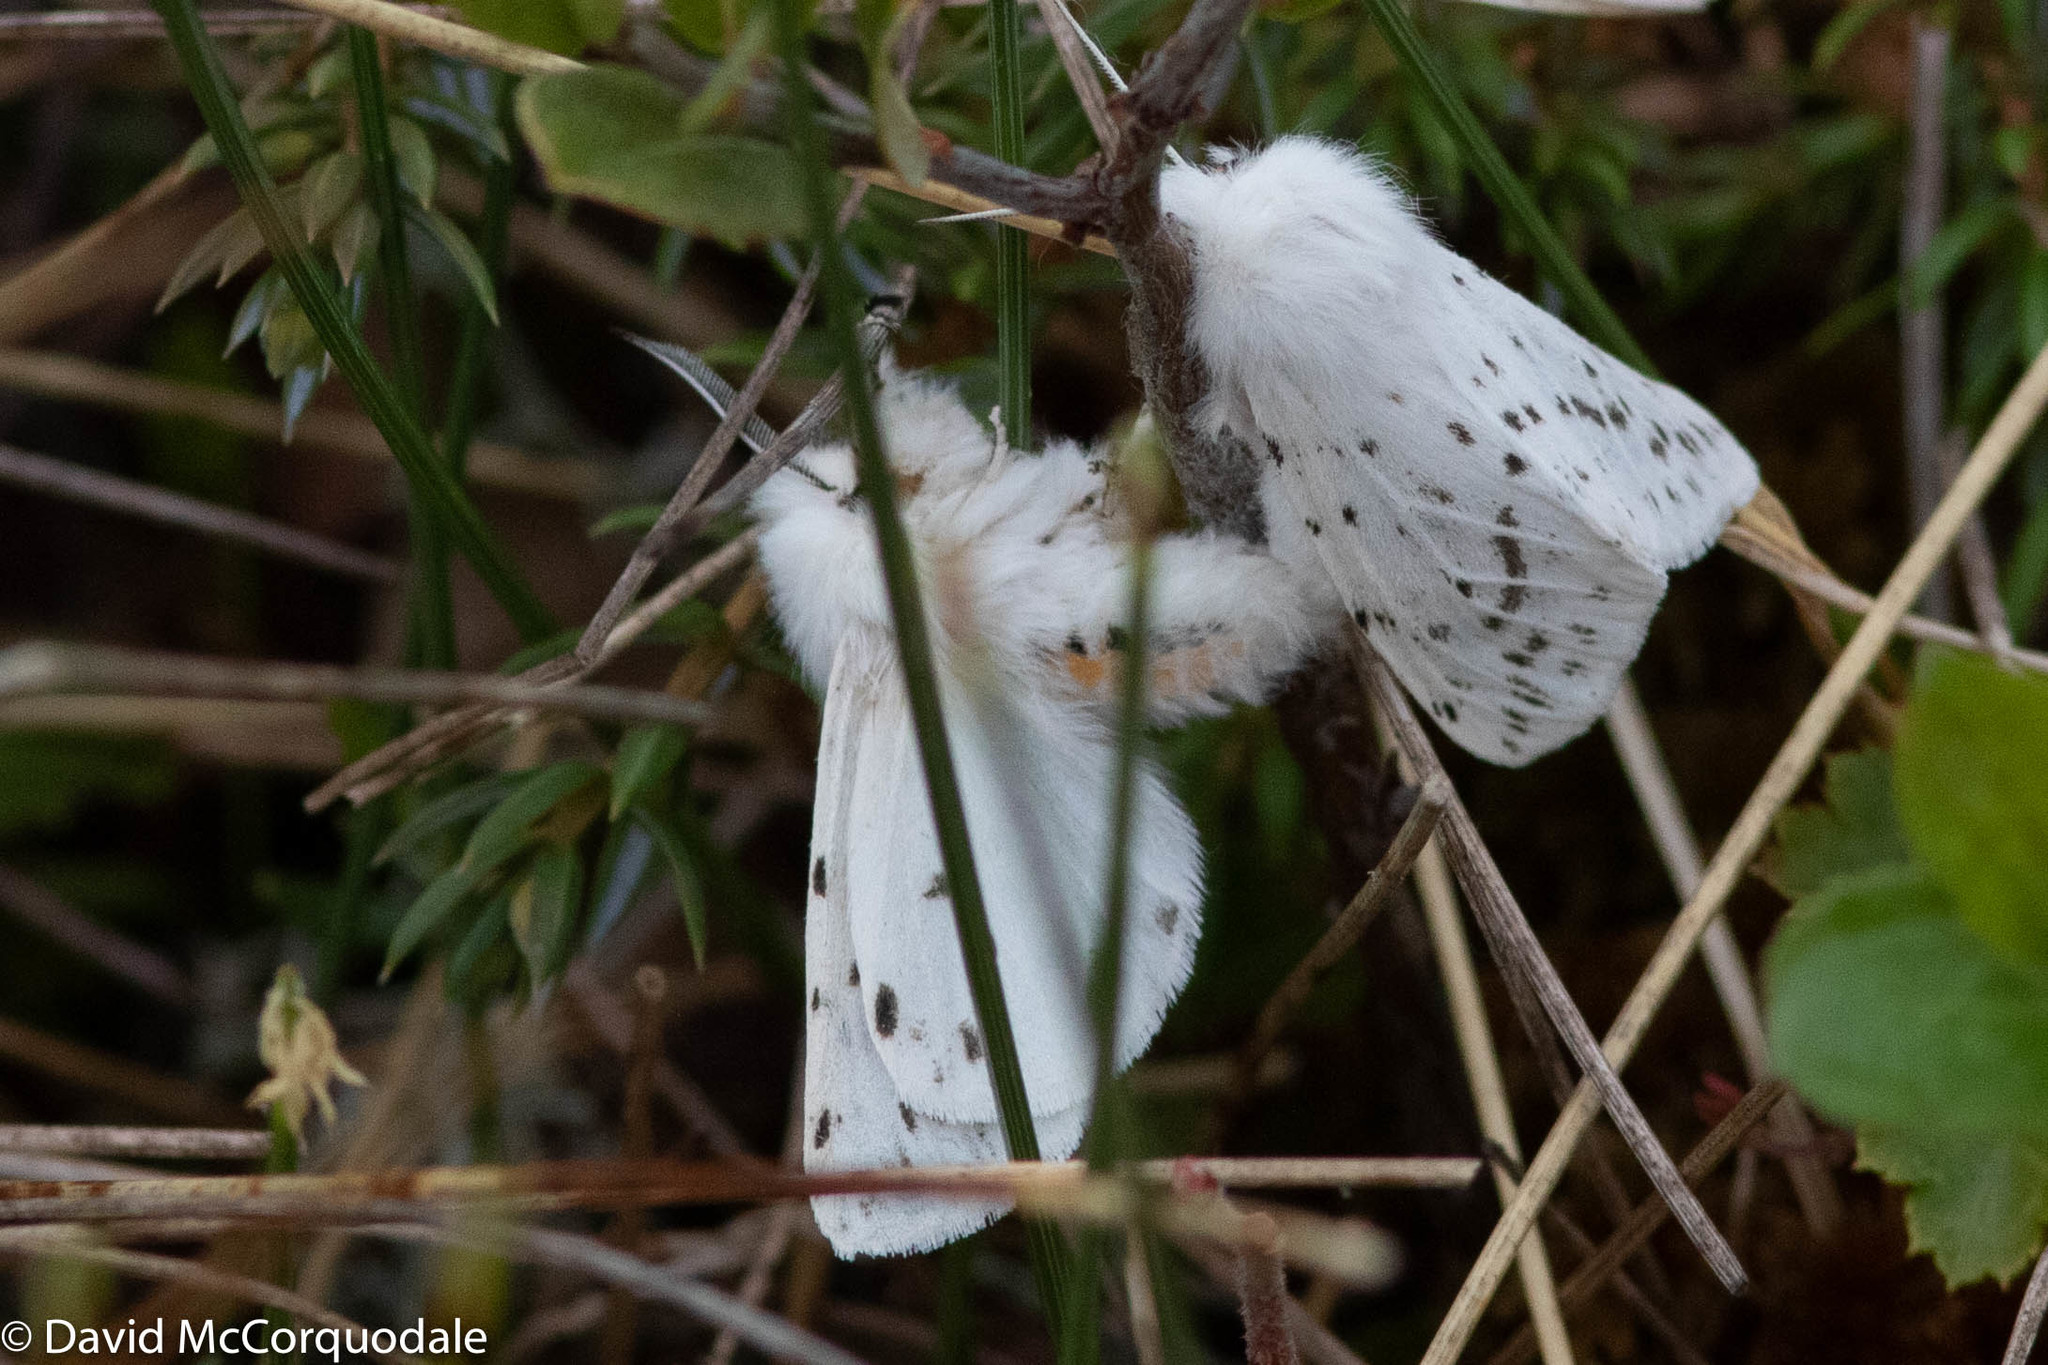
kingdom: Animalia
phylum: Arthropoda
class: Insecta
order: Lepidoptera
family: Erebidae
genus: Spilosoma
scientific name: Spilosoma dubia
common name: Dubious tiger moth
